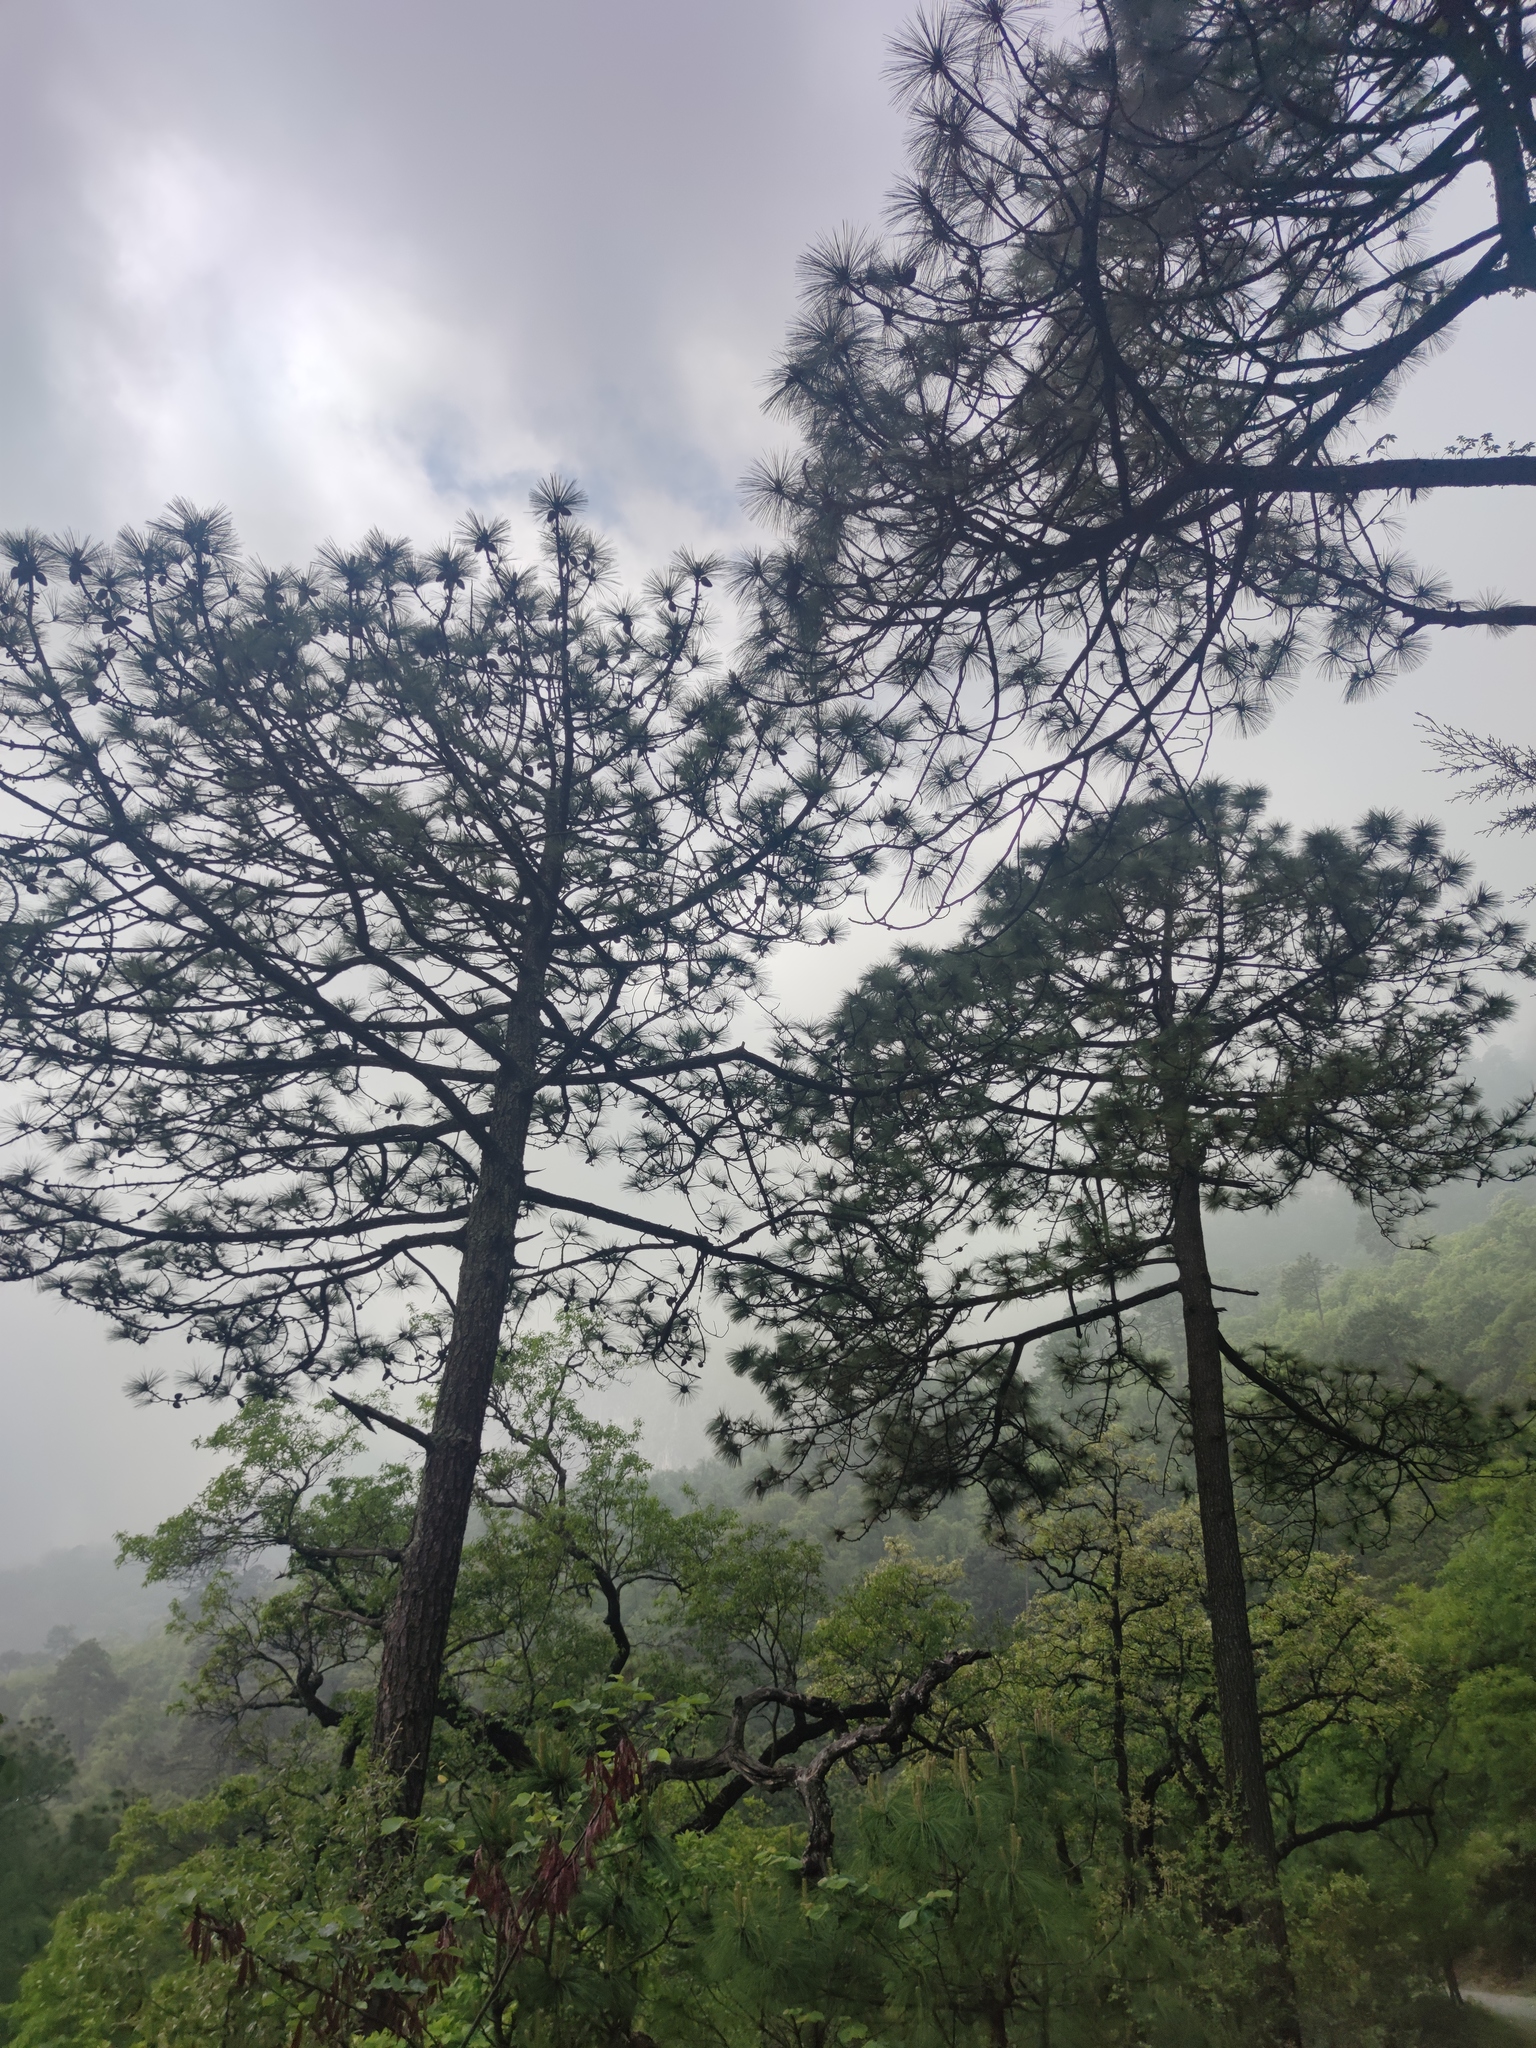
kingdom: Plantae
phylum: Tracheophyta
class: Pinopsida
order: Pinales
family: Pinaceae
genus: Pinus
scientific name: Pinus pseudostrobus
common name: False weymouth pine
